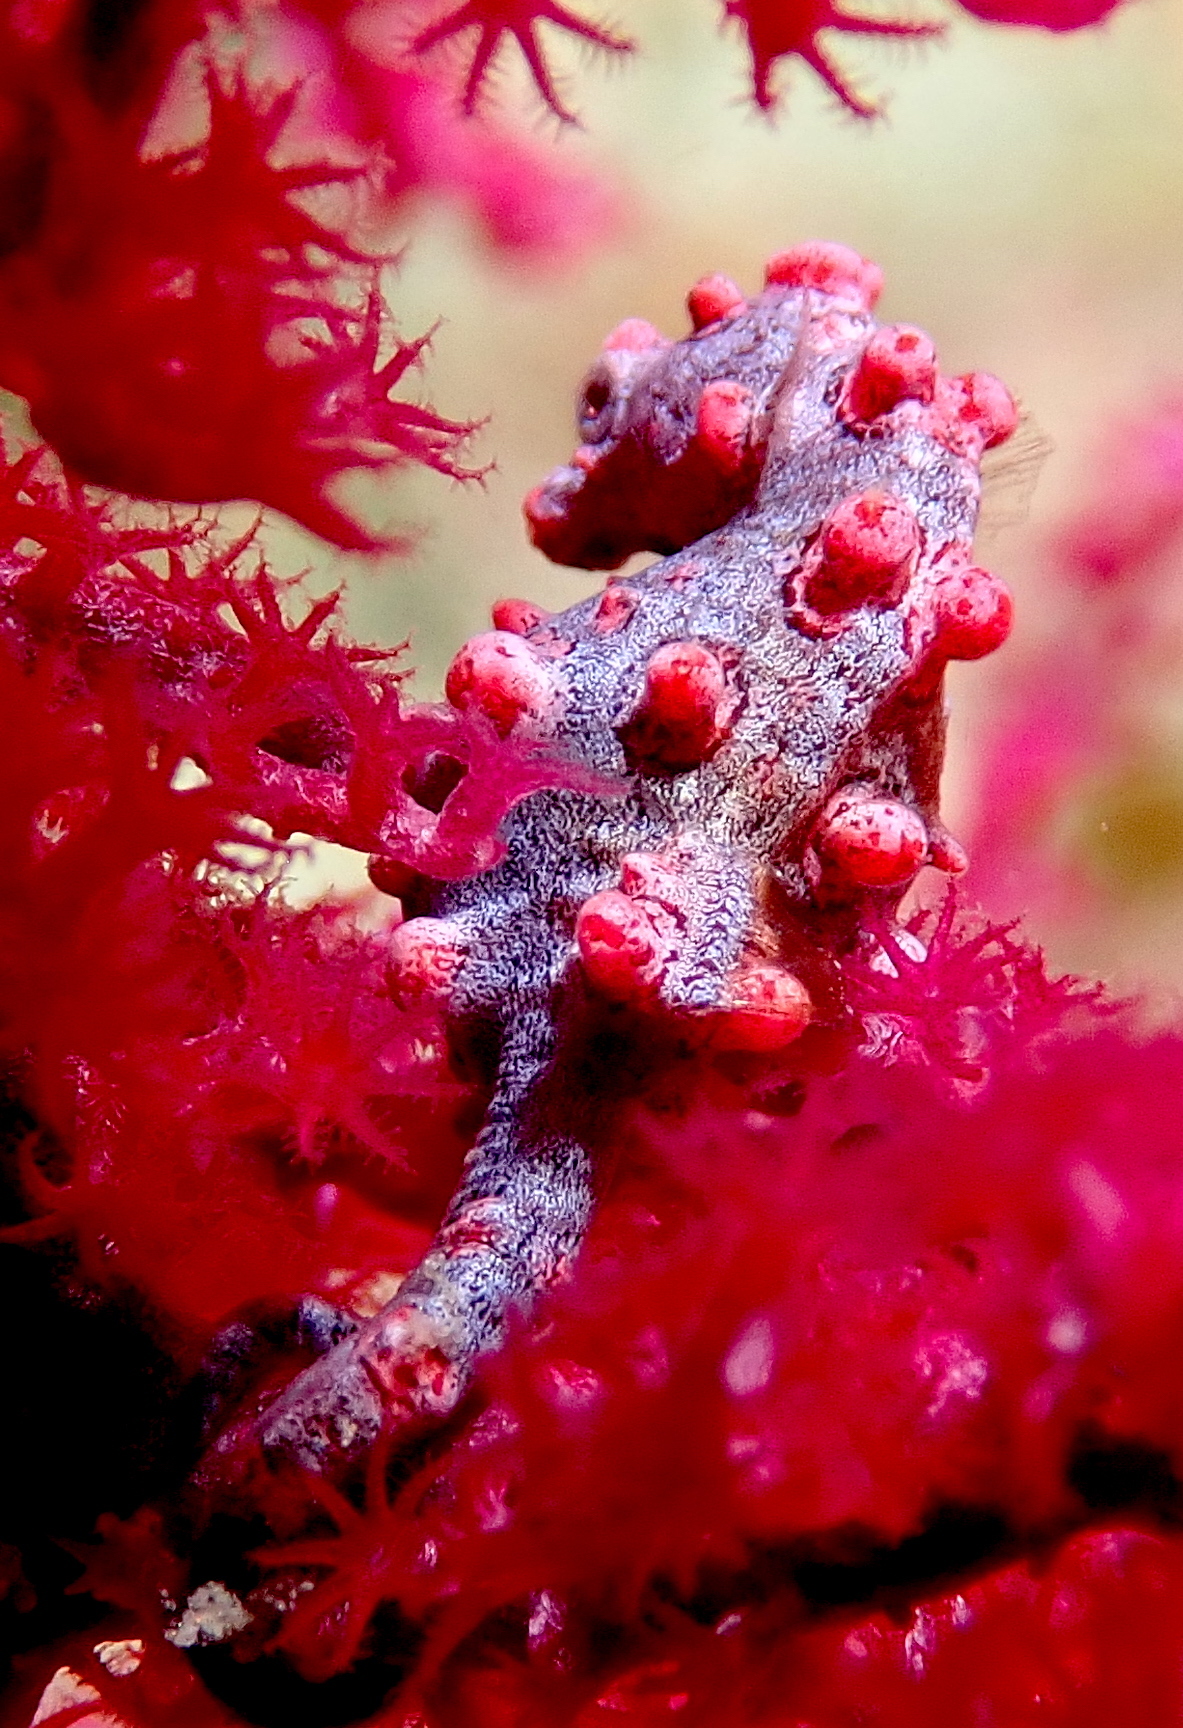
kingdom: Animalia
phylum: Chordata
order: Syngnathiformes
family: Syngnathidae
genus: Hippocampus
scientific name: Hippocampus bargibanti
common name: Bargibant's seahorse
